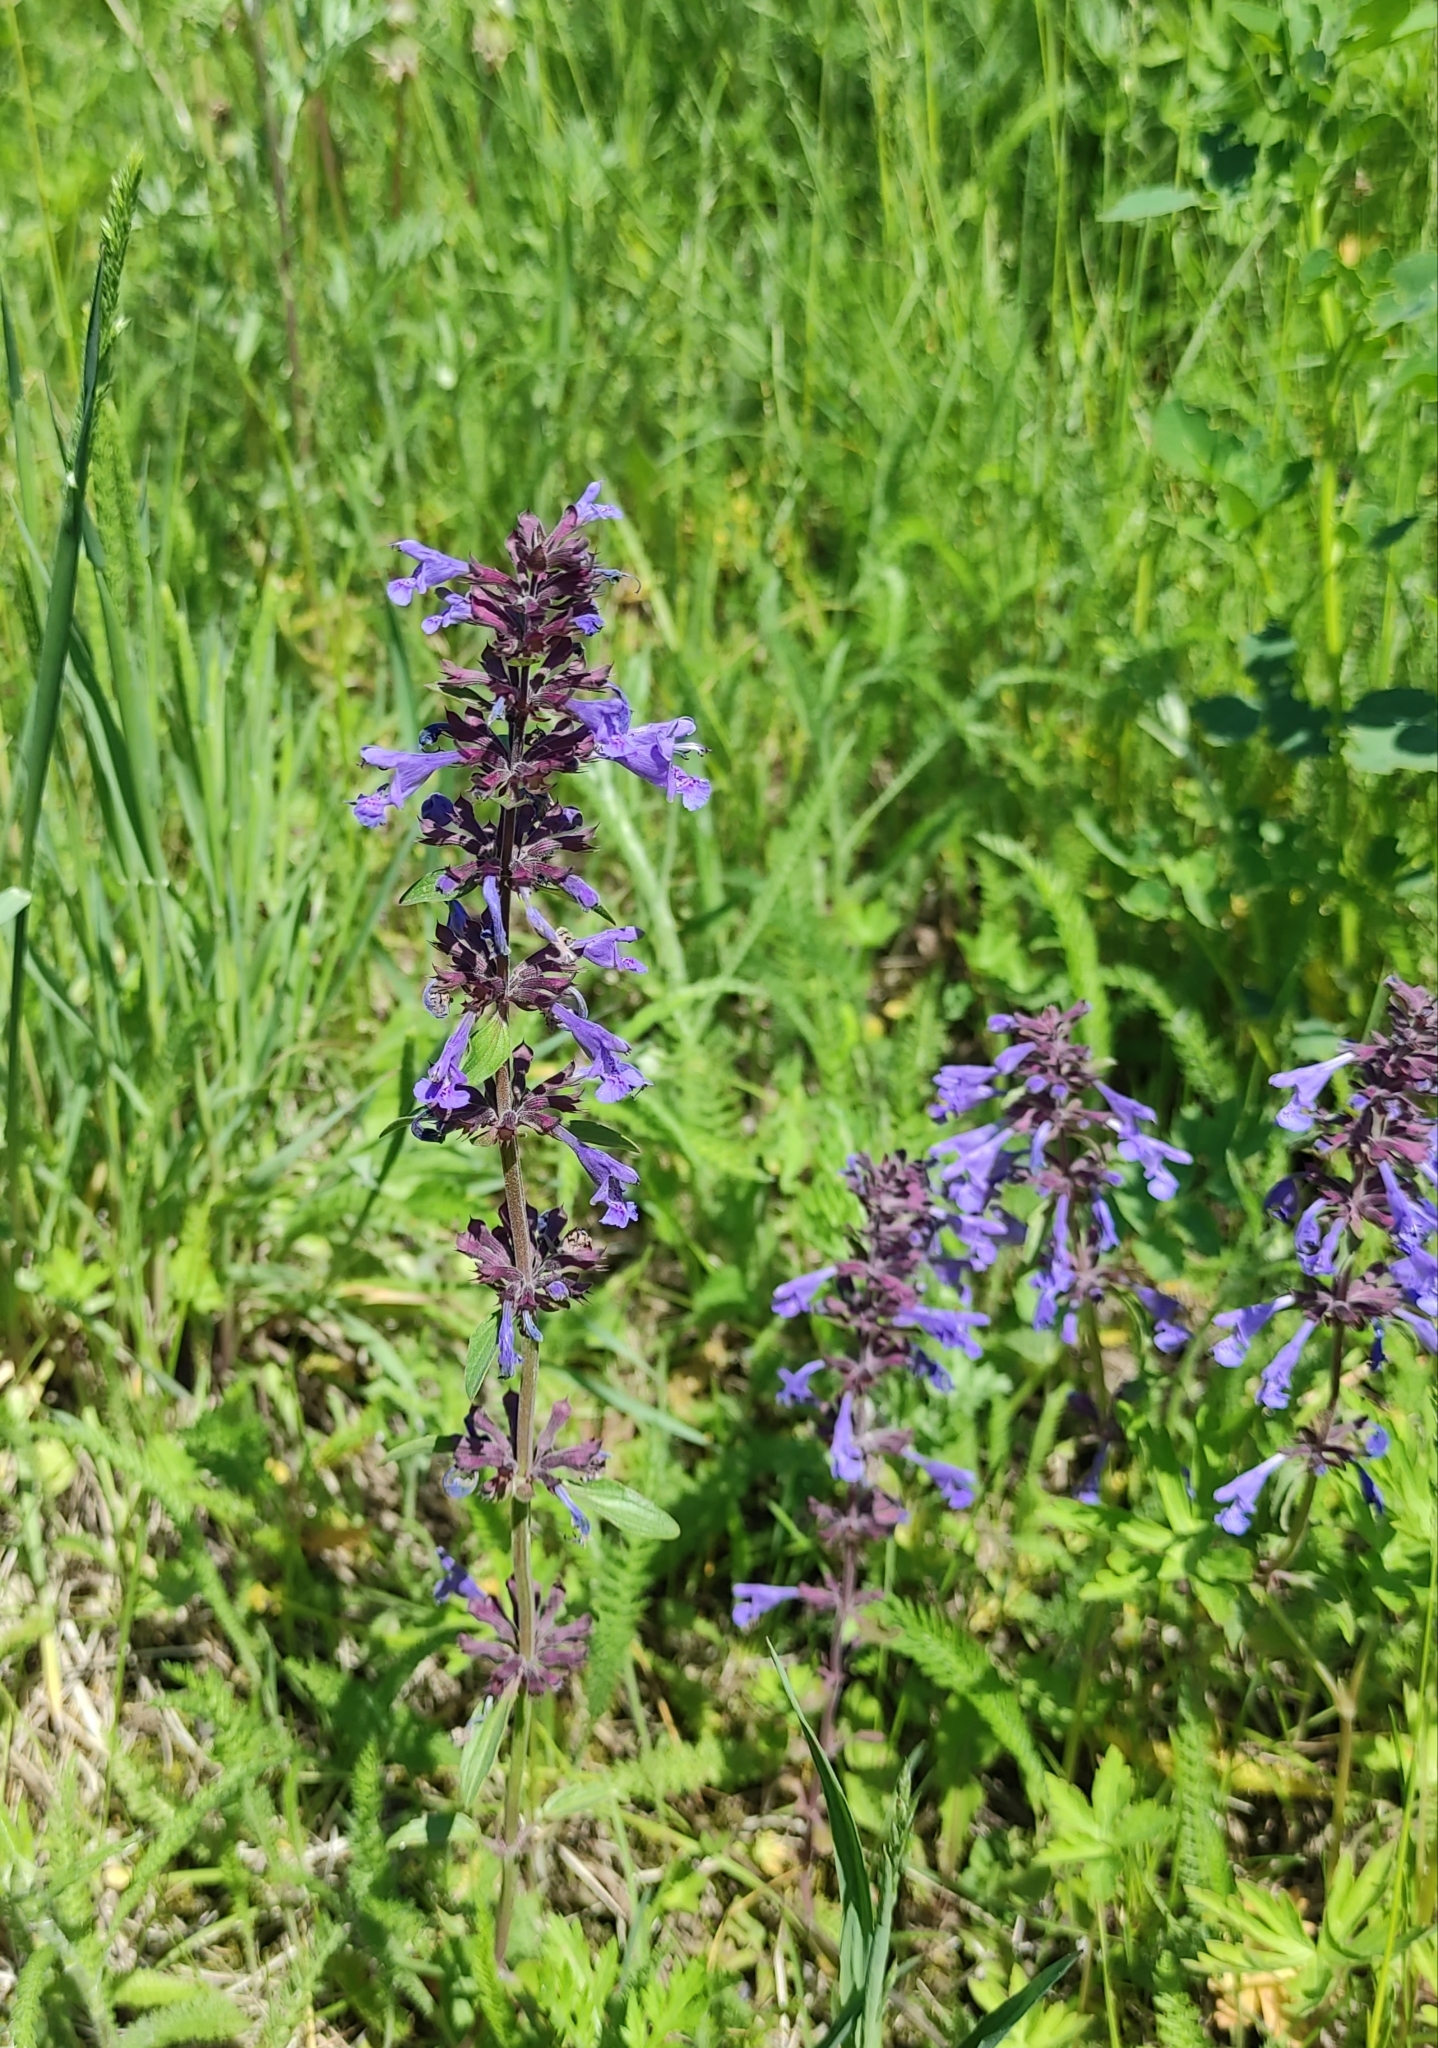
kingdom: Plantae
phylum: Tracheophyta
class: Magnoliopsida
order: Lamiales
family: Lamiaceae
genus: Dracocephalum
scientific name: Dracocephalum nutans
